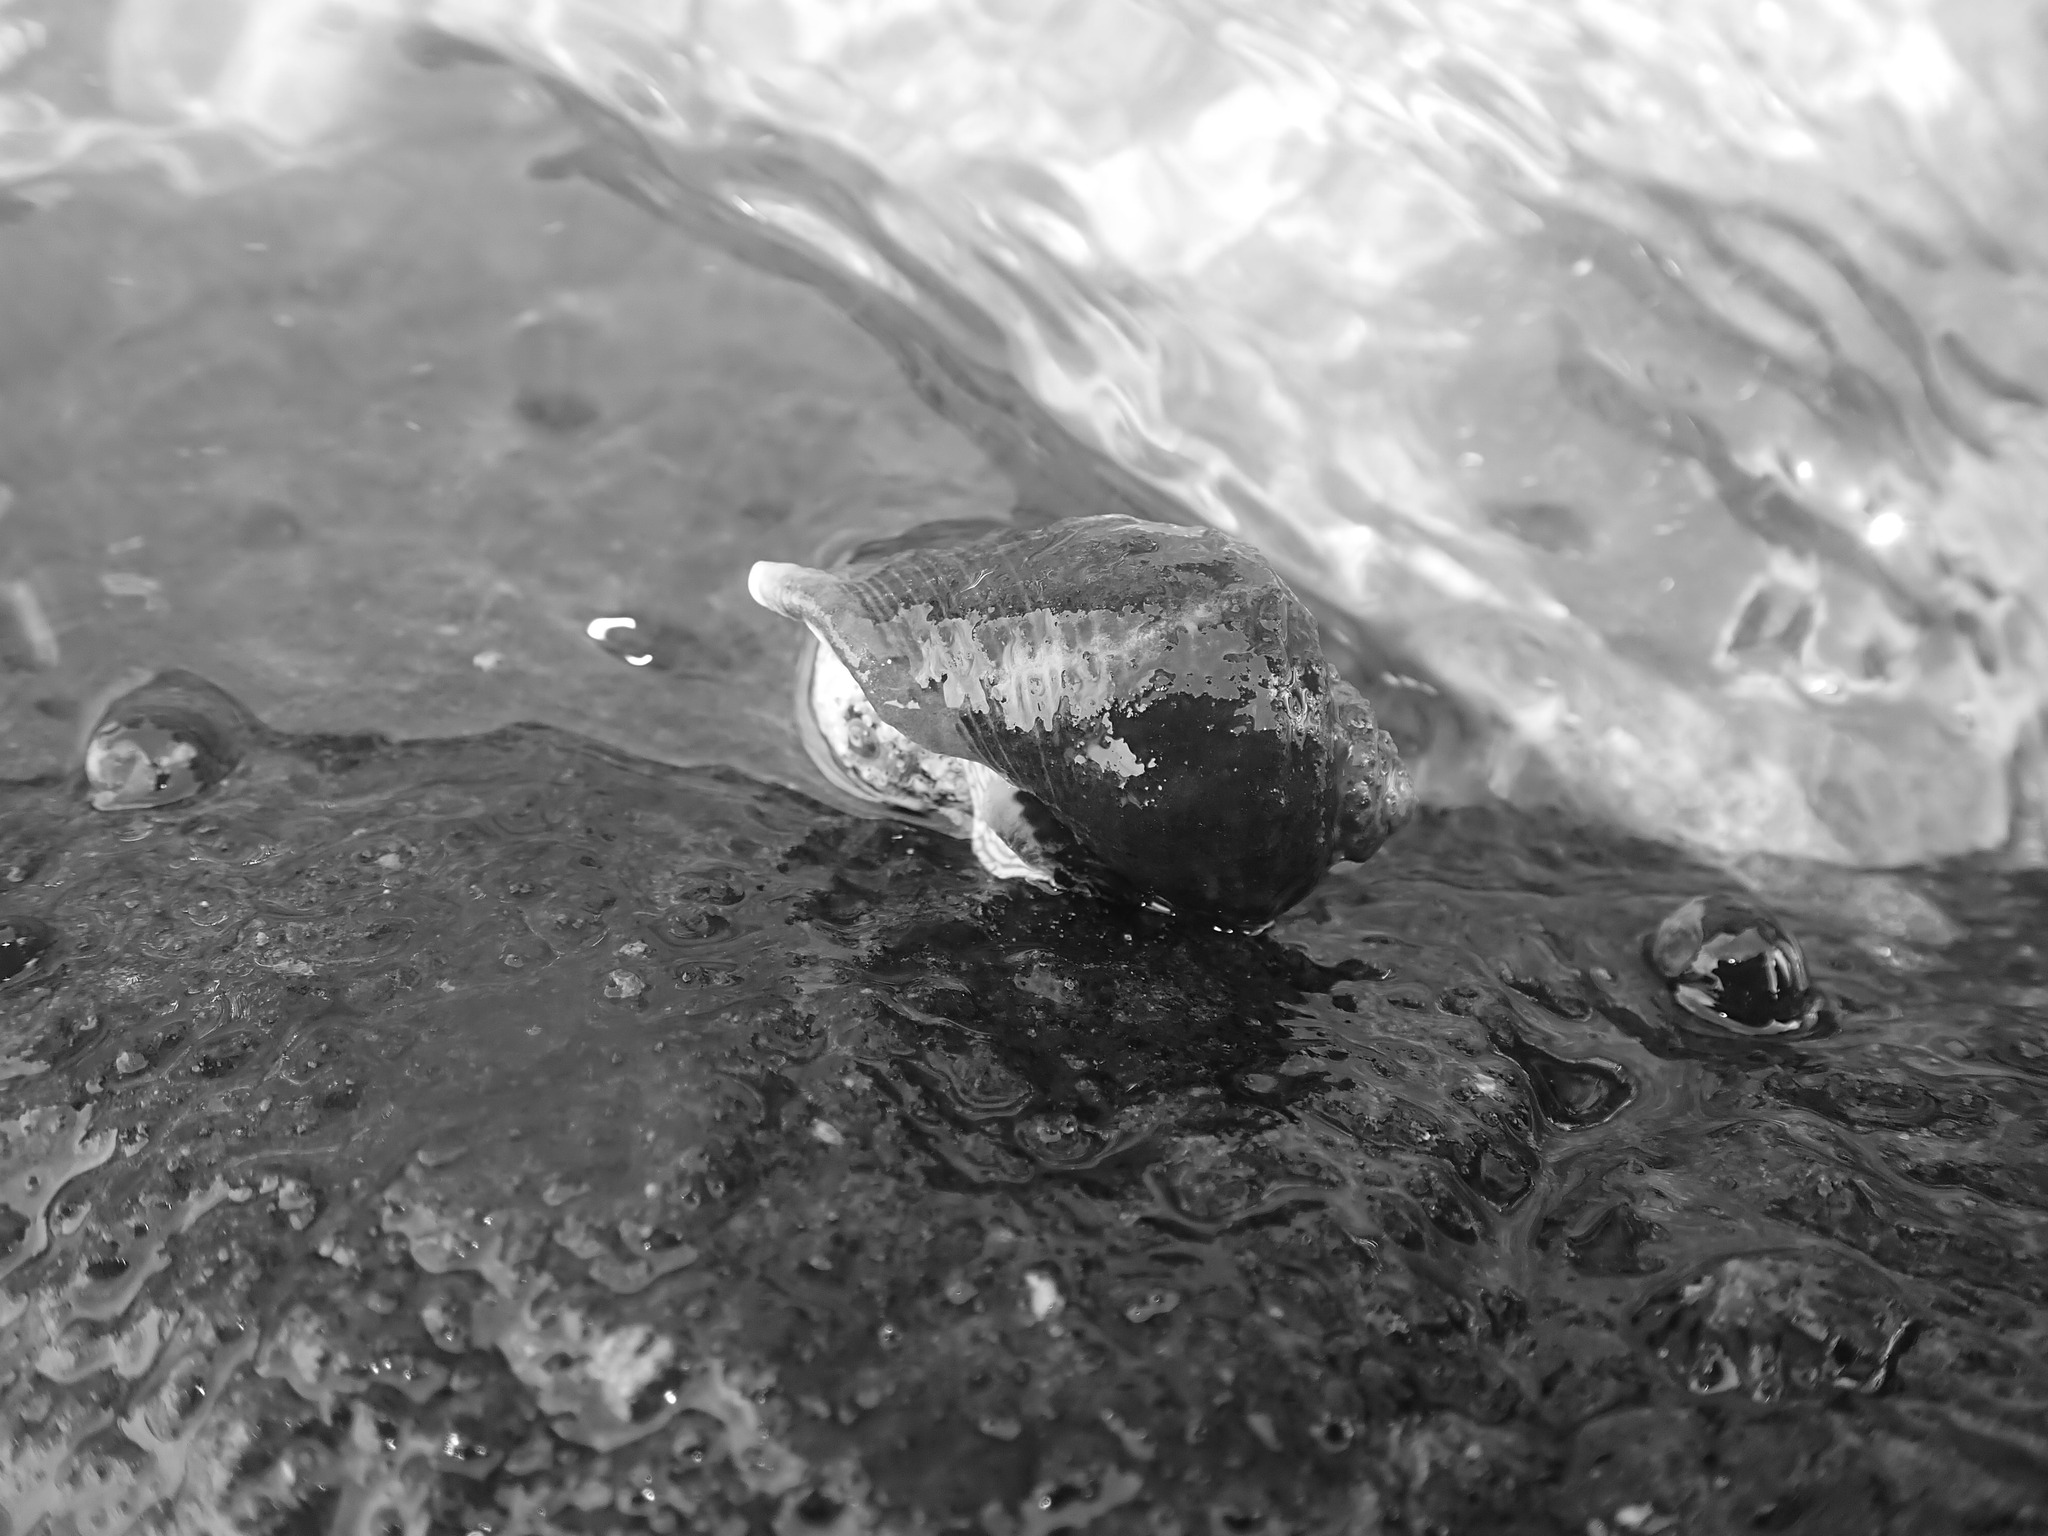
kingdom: Animalia
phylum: Mollusca
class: Gastropoda
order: Neogastropoda
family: Muricidae
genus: Haustrum
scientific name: Haustrum haustorium
